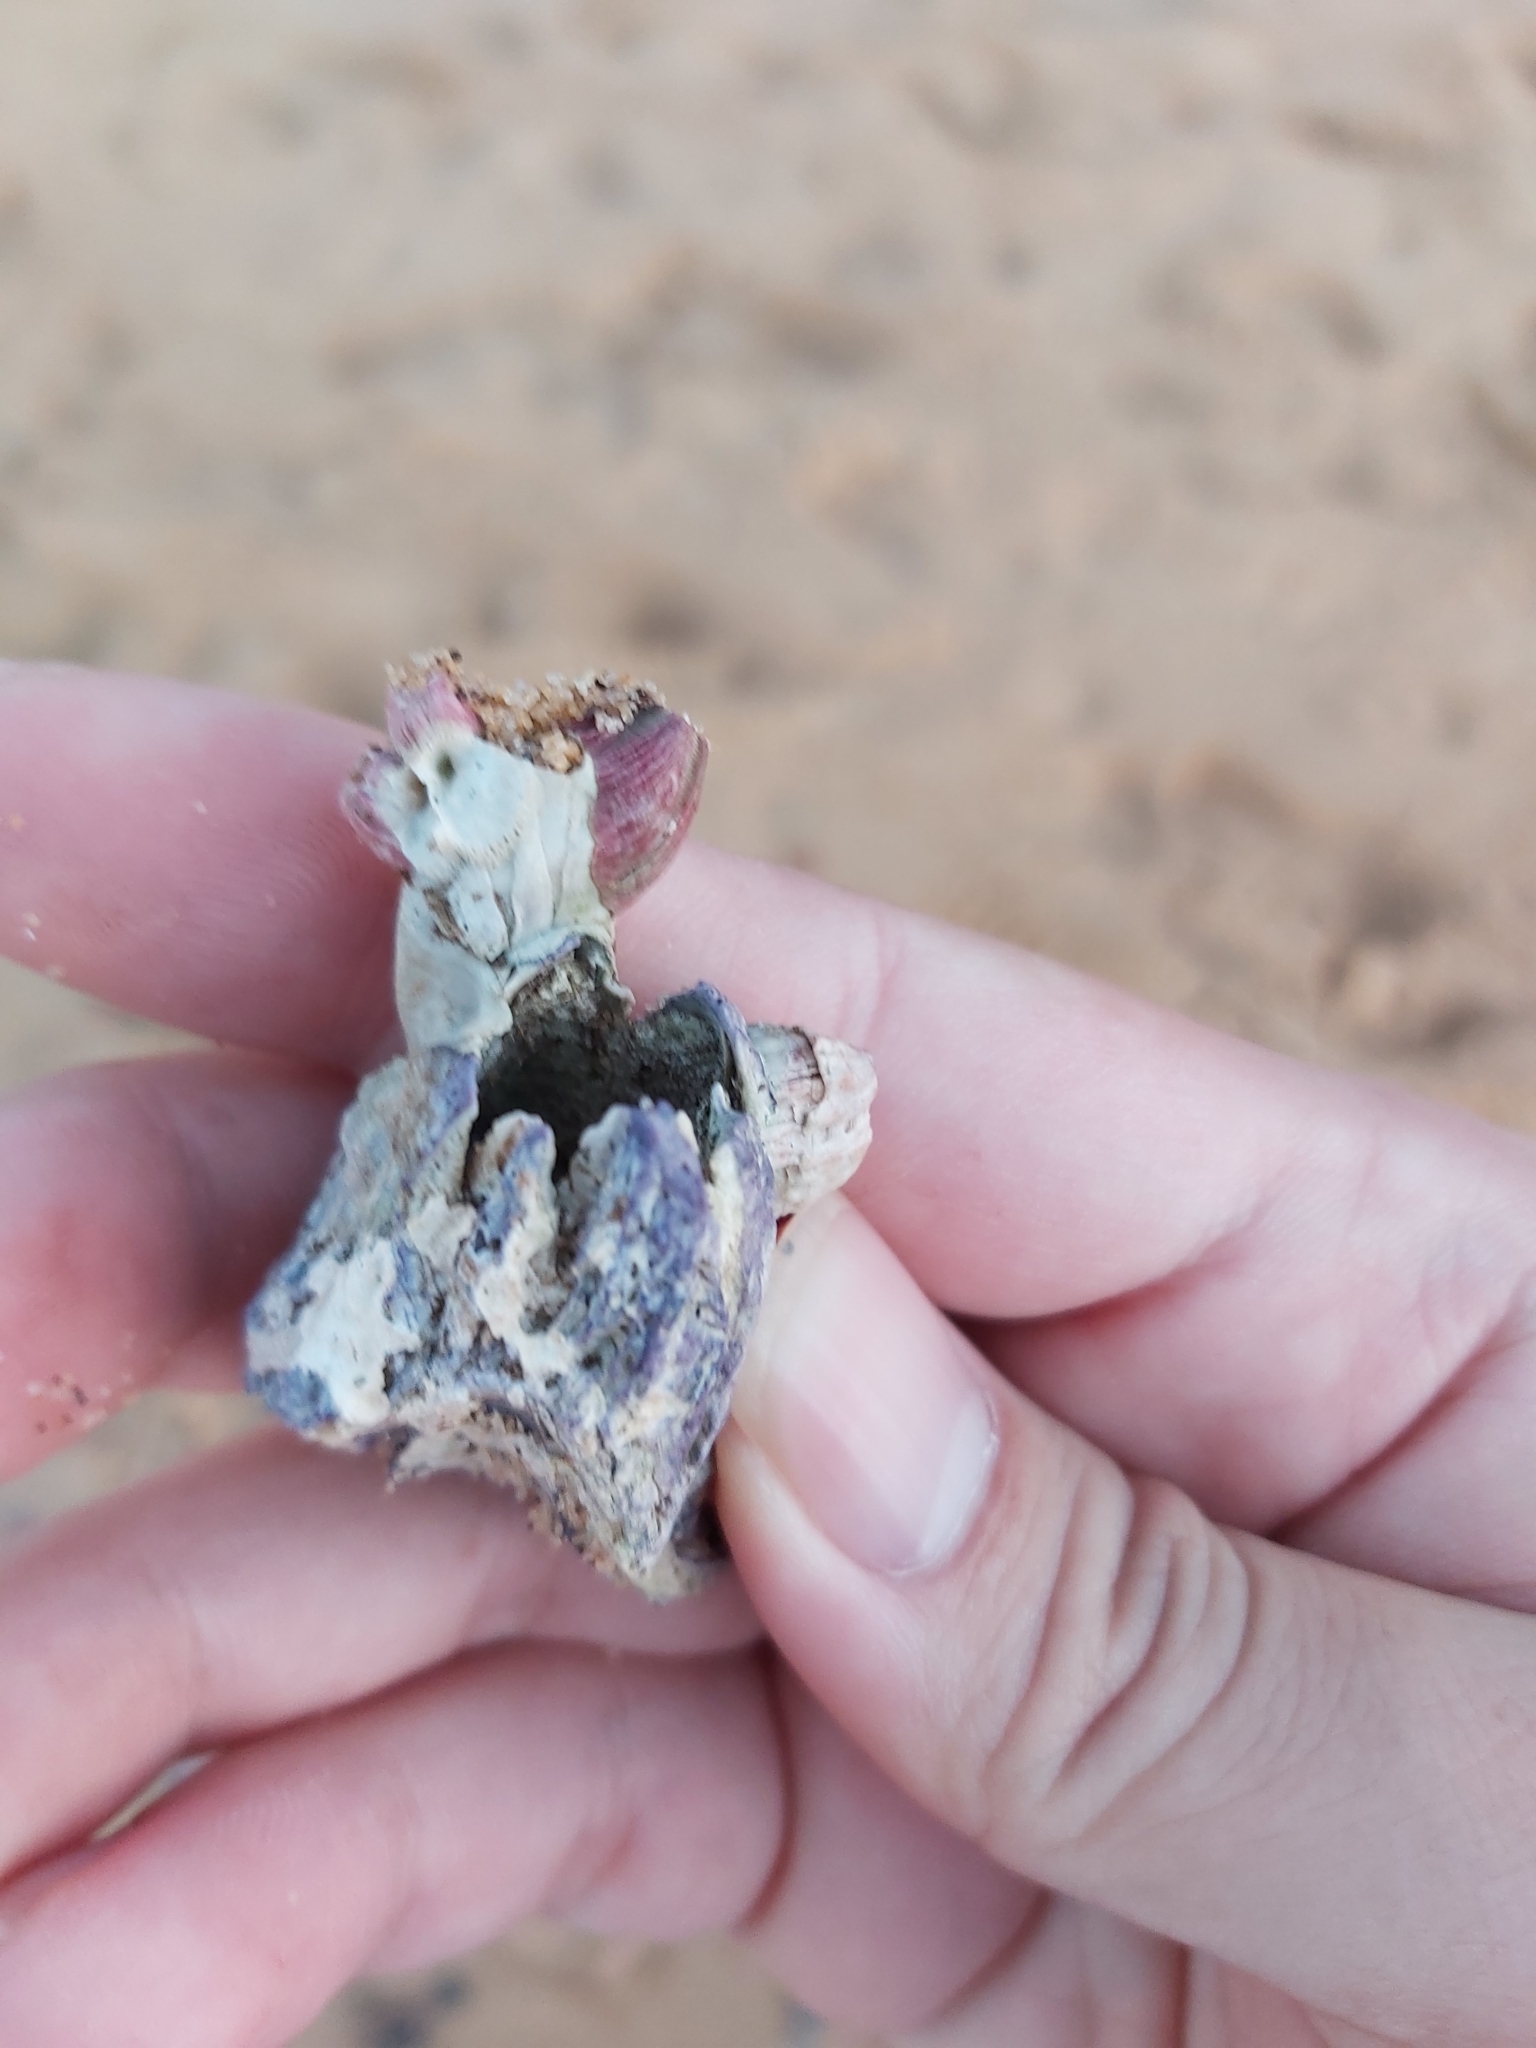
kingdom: Animalia
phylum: Arthropoda
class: Maxillopoda
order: Sessilia
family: Austrobalanidae
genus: Austrobalanus
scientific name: Austrobalanus imperator
